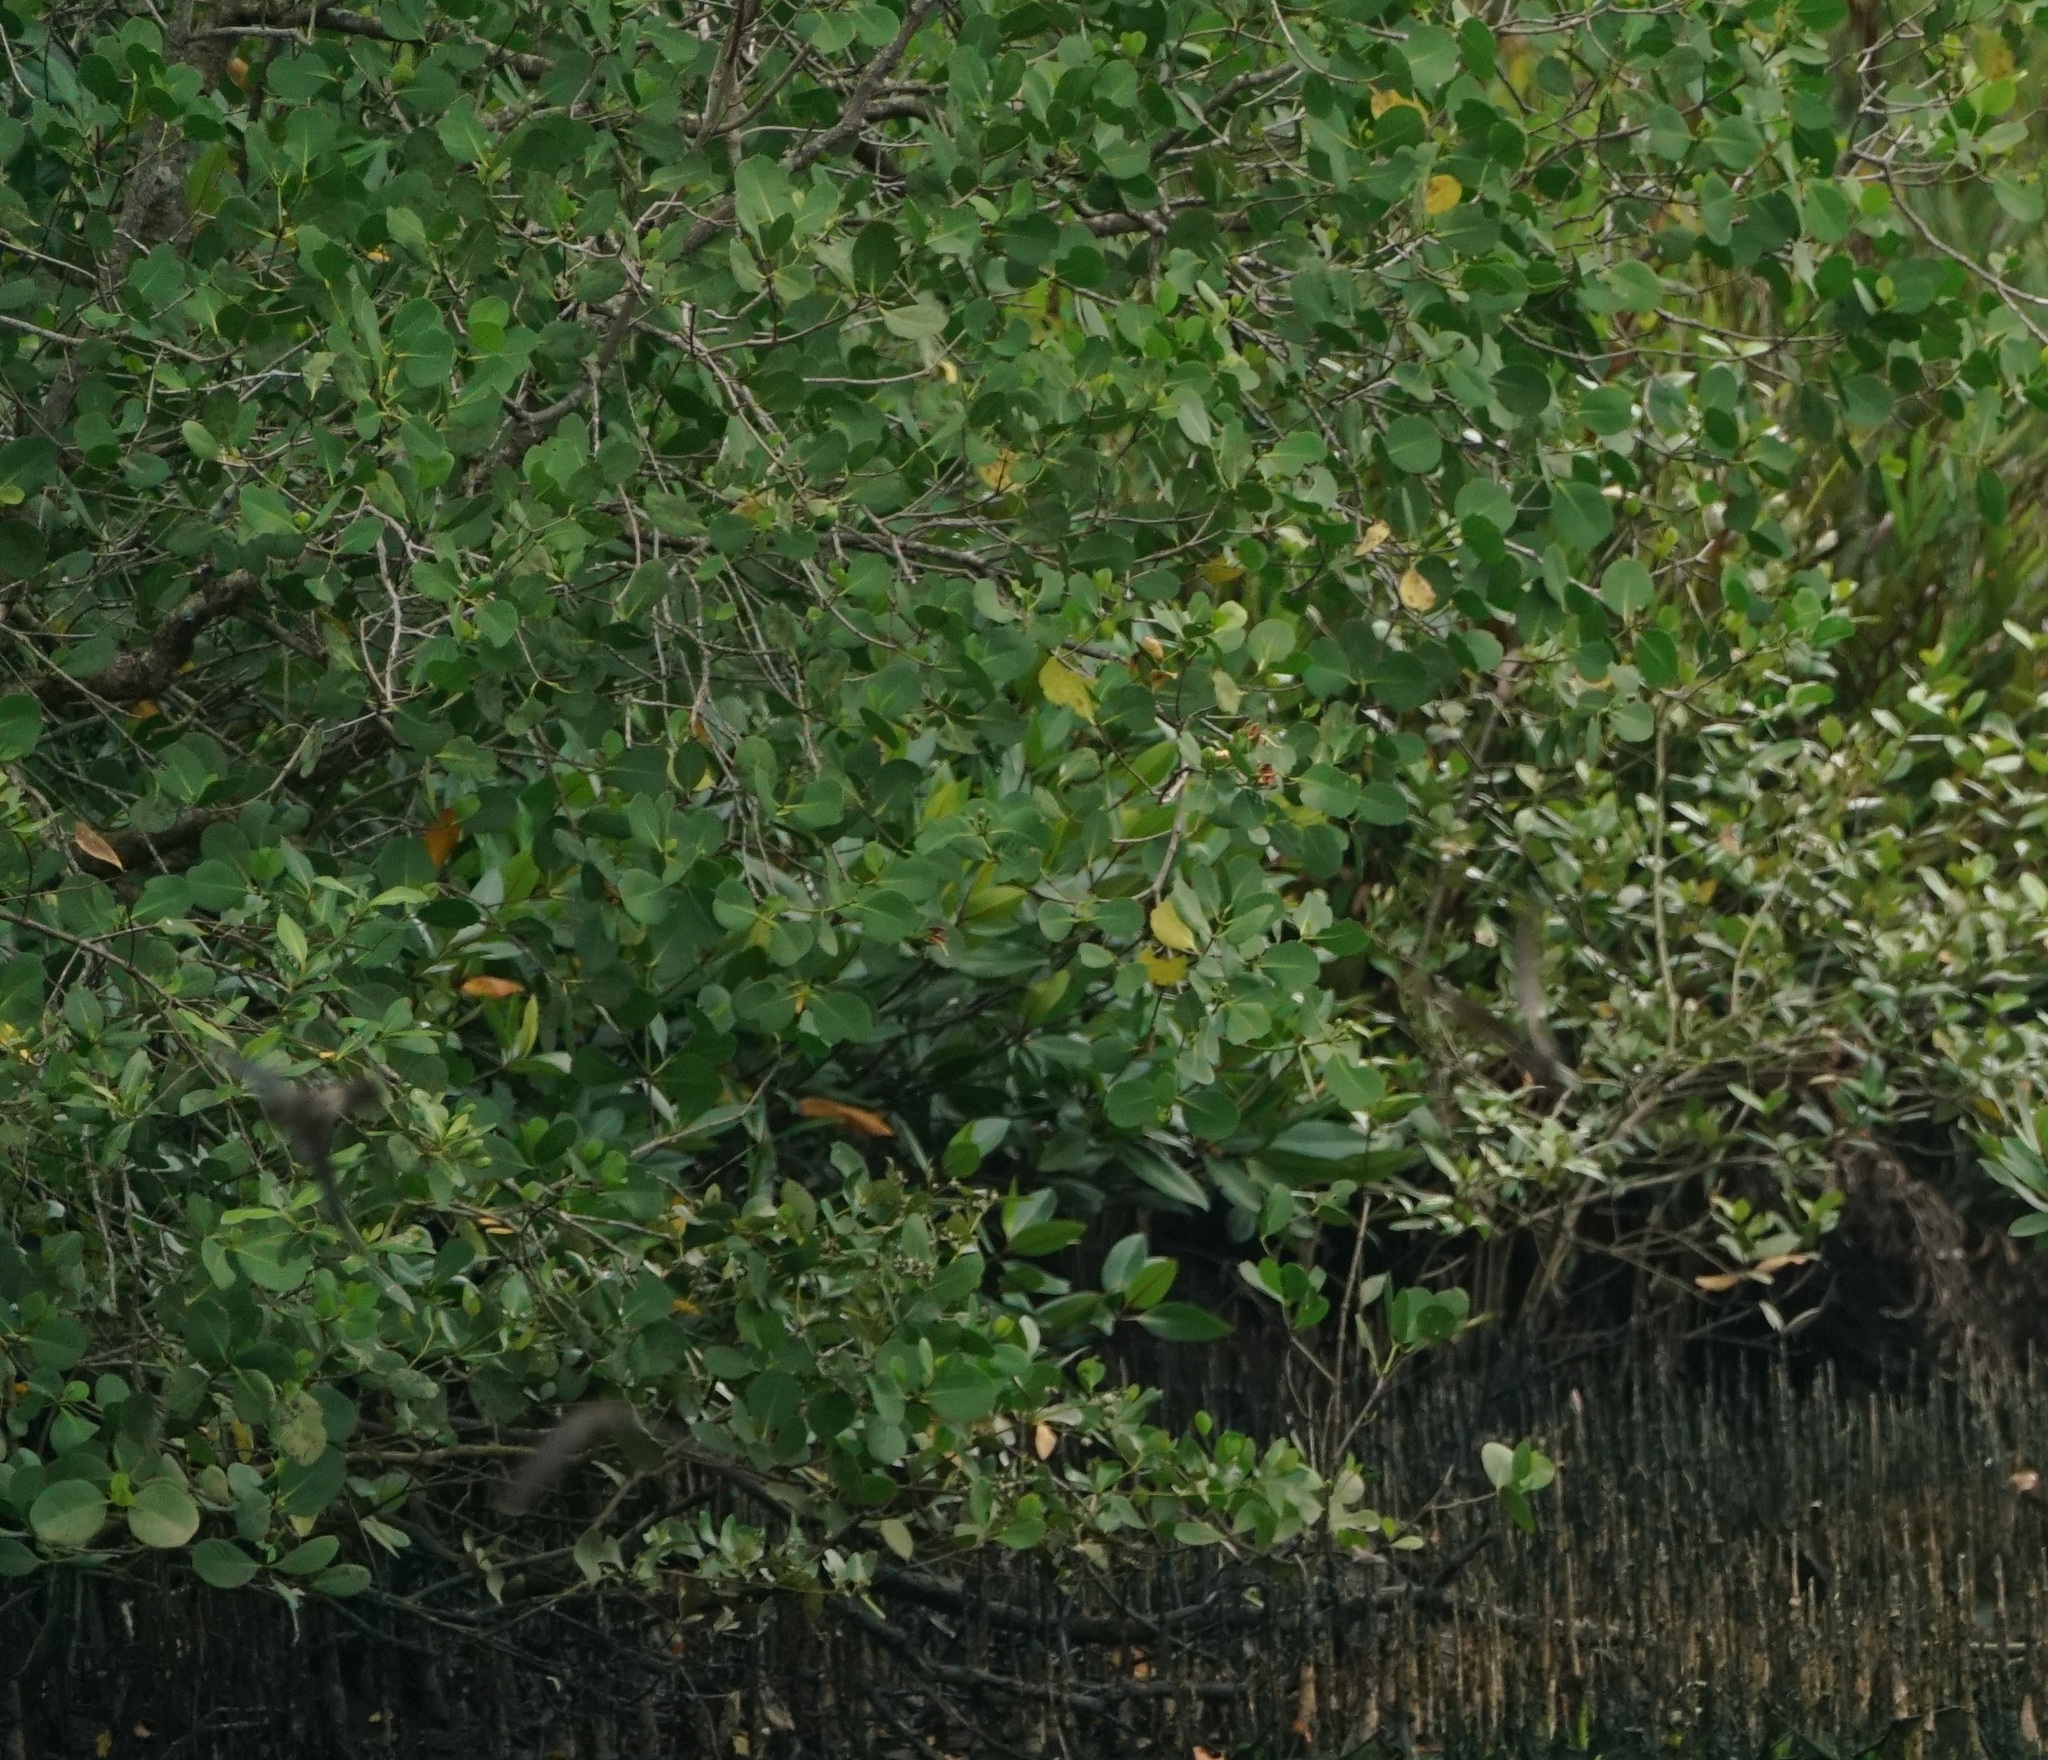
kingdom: Plantae
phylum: Tracheophyta
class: Magnoliopsida
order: Myrtales
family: Lythraceae
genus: Sonneratia
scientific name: Sonneratia alba
